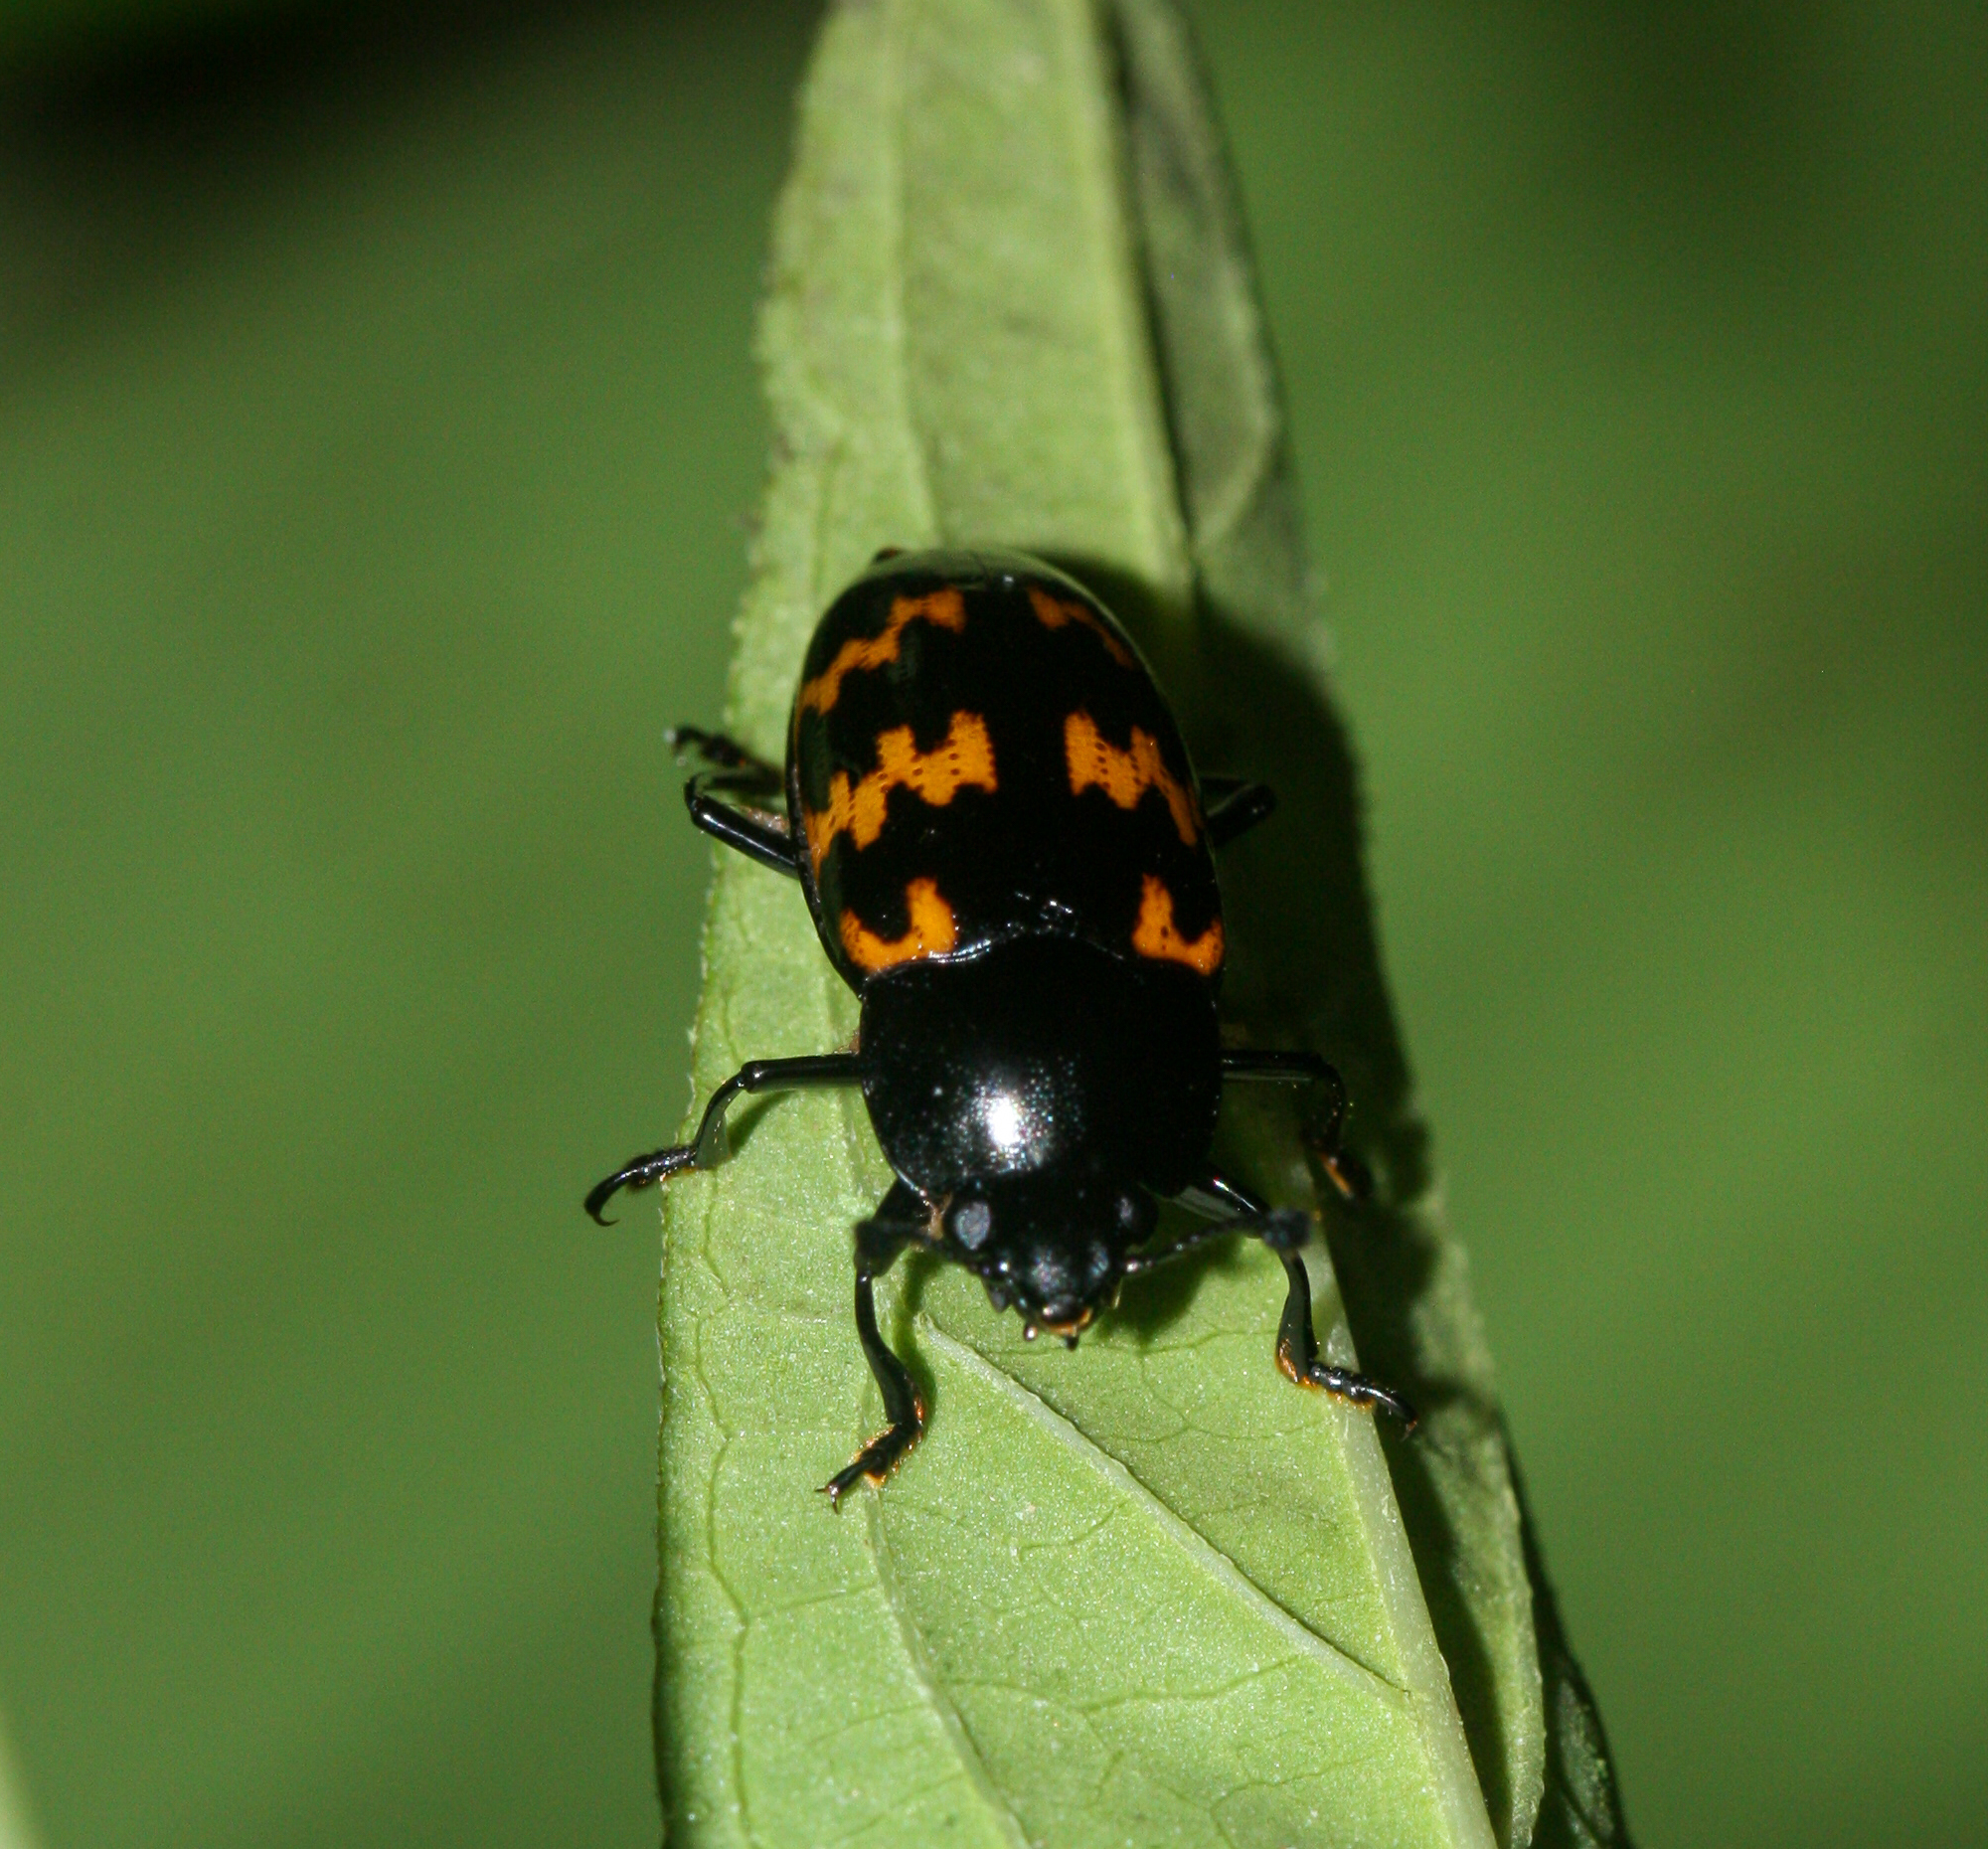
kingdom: Animalia
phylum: Arthropoda
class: Insecta
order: Coleoptera
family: Erotylidae
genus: Pselaphacus
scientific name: Pselaphacus curvipes
